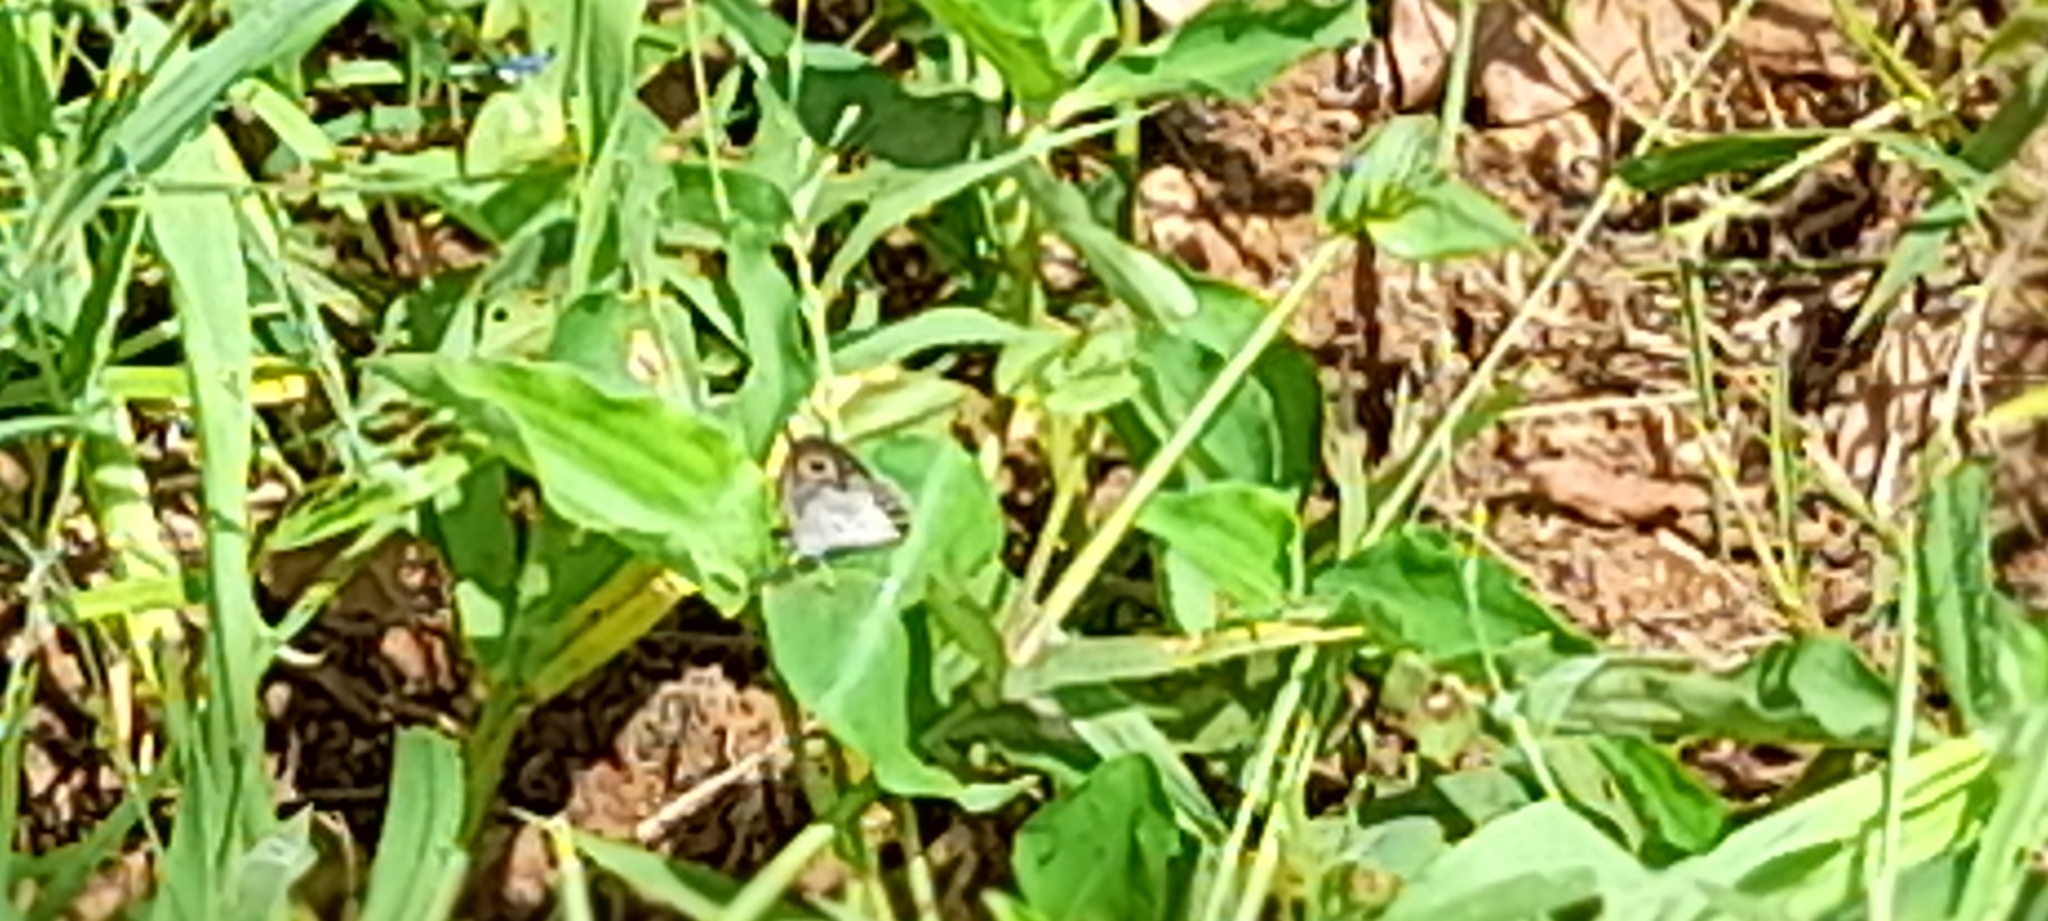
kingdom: Animalia
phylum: Arthropoda
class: Insecta
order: Lepidoptera
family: Nymphalidae
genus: Ypthima
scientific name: Ypthima ceylonica
